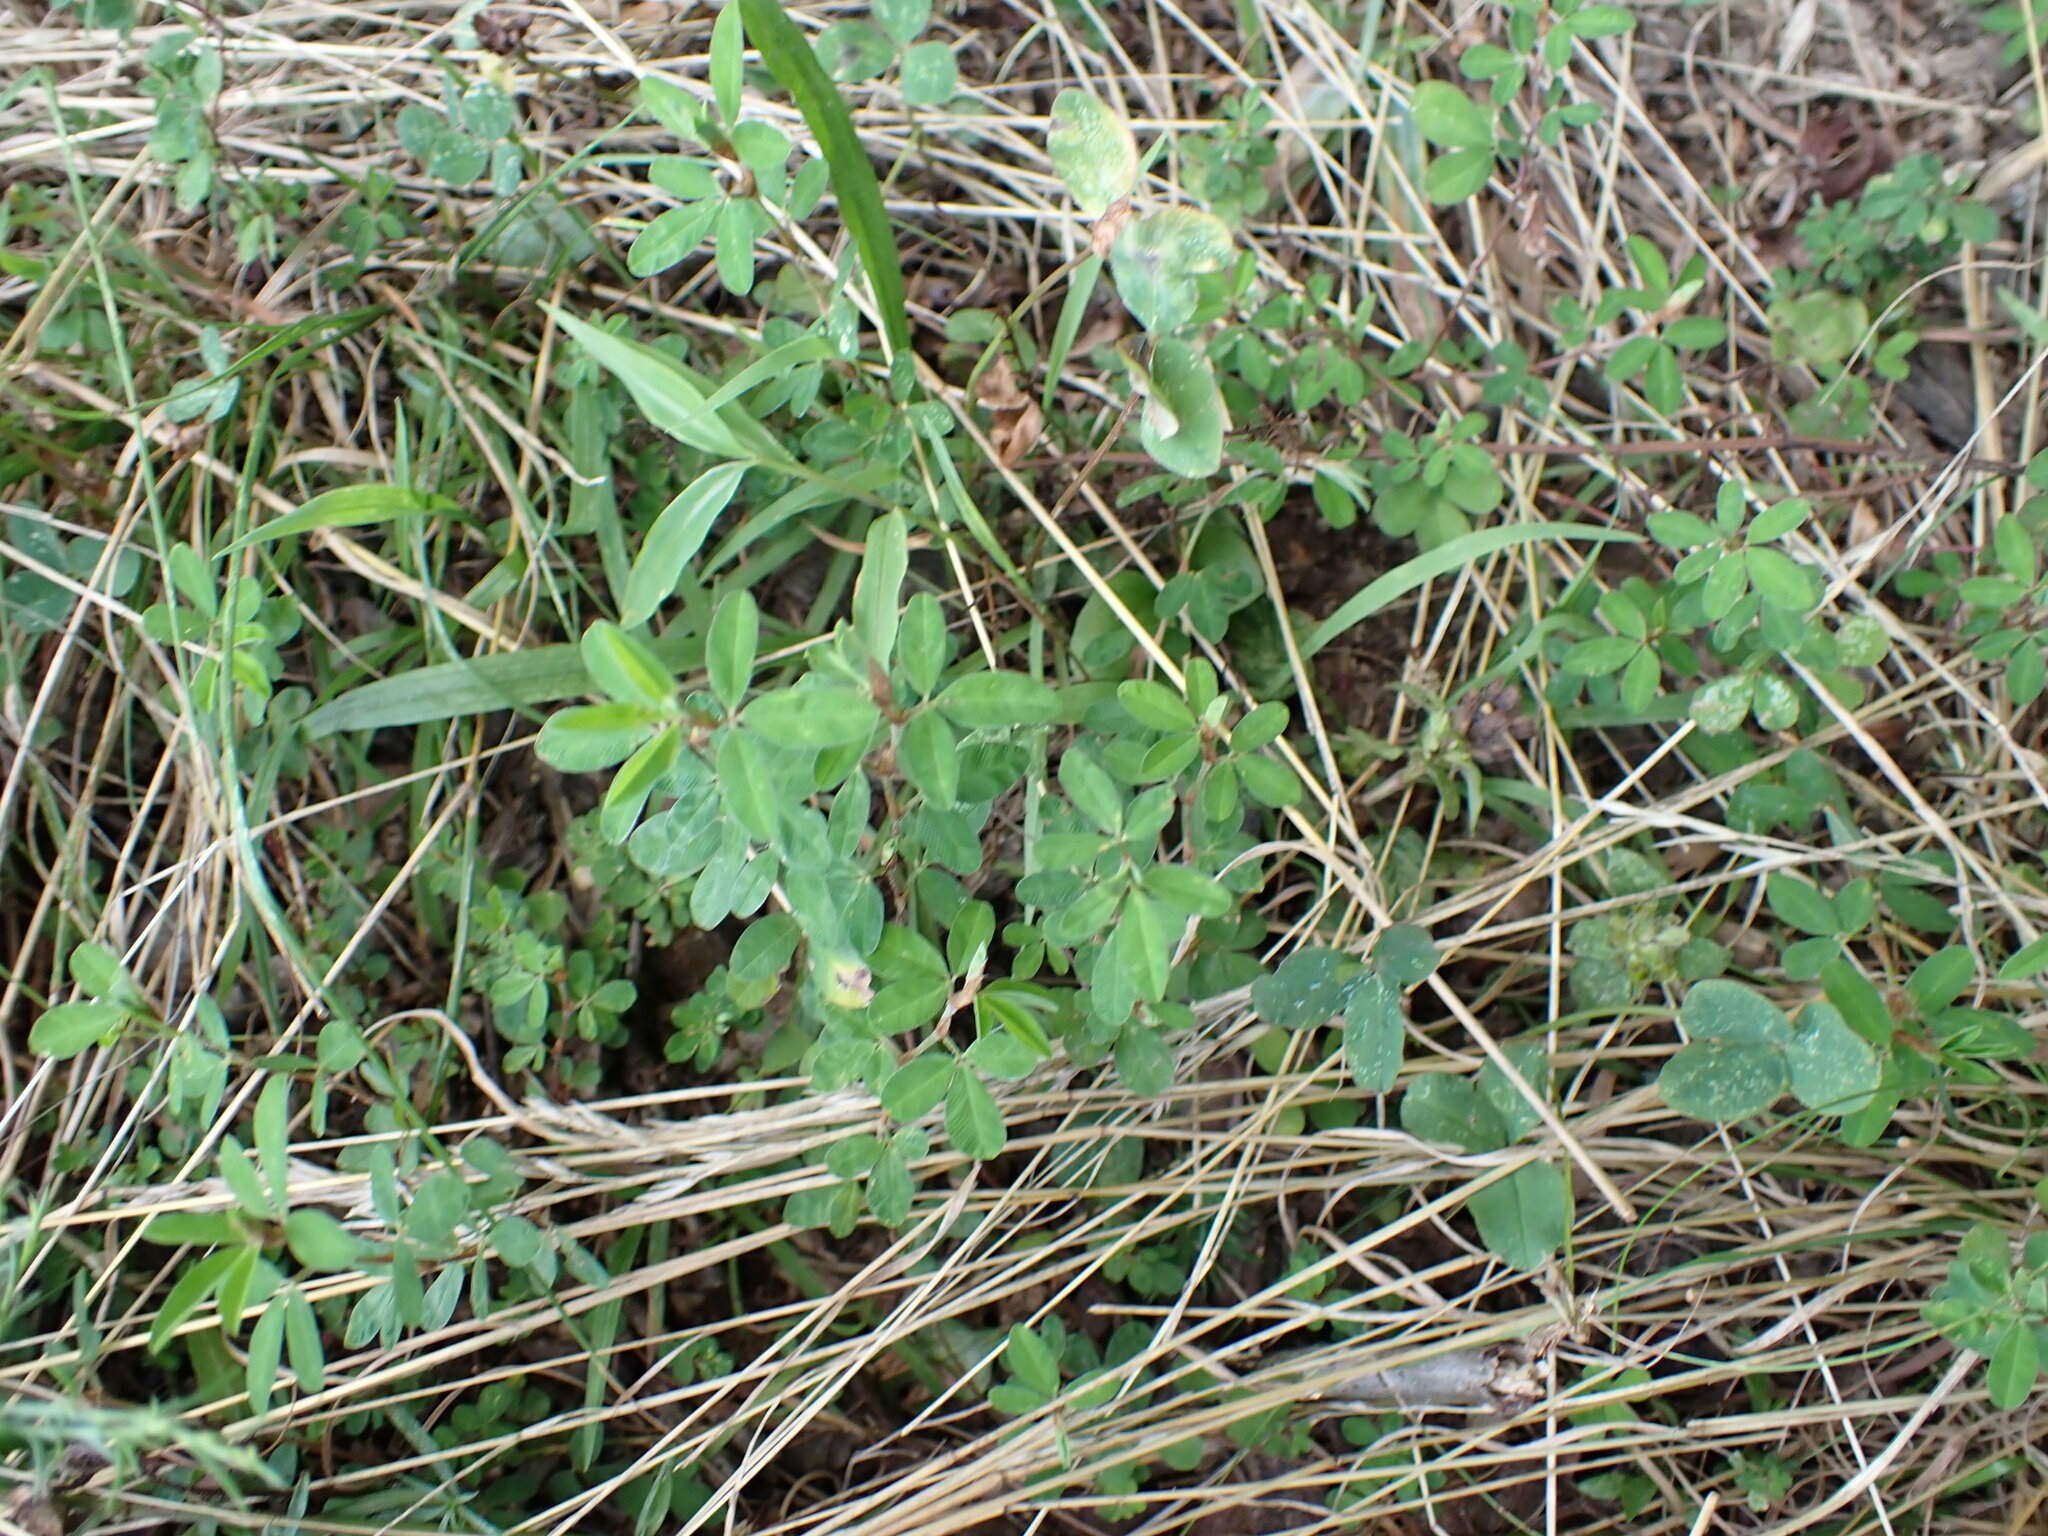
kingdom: Plantae
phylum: Tracheophyta
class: Magnoliopsida
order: Fabales
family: Fabaceae
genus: Kummerowia
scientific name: Kummerowia striata
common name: Japanese clover
